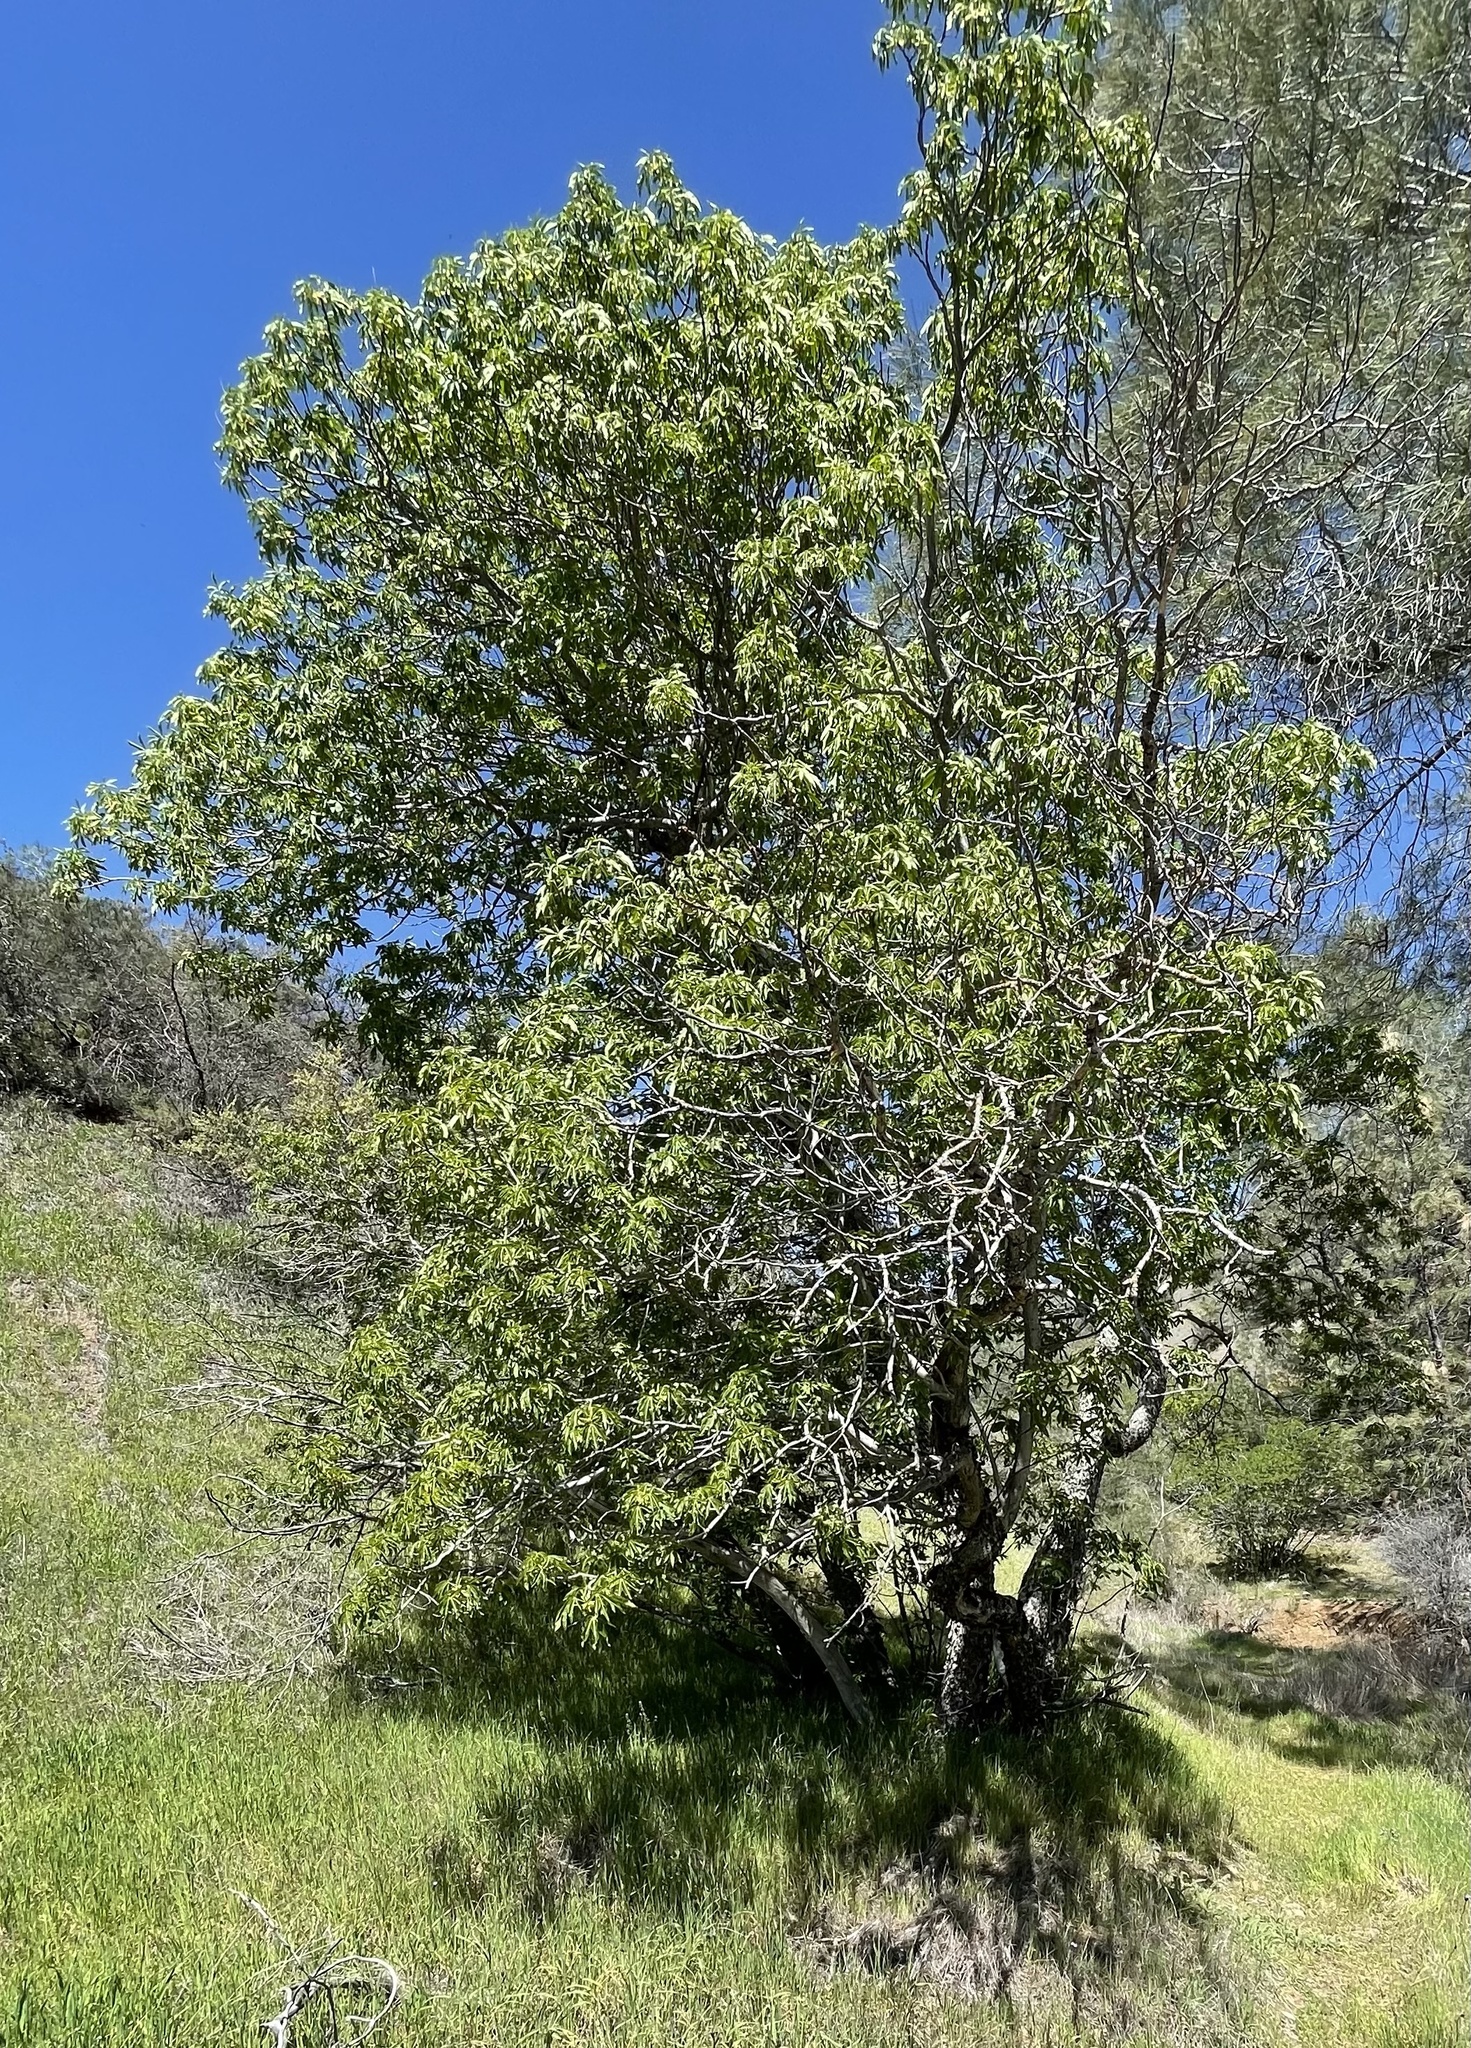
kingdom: Plantae
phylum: Tracheophyta
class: Magnoliopsida
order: Sapindales
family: Sapindaceae
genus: Aesculus
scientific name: Aesculus californica
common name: California buckeye
